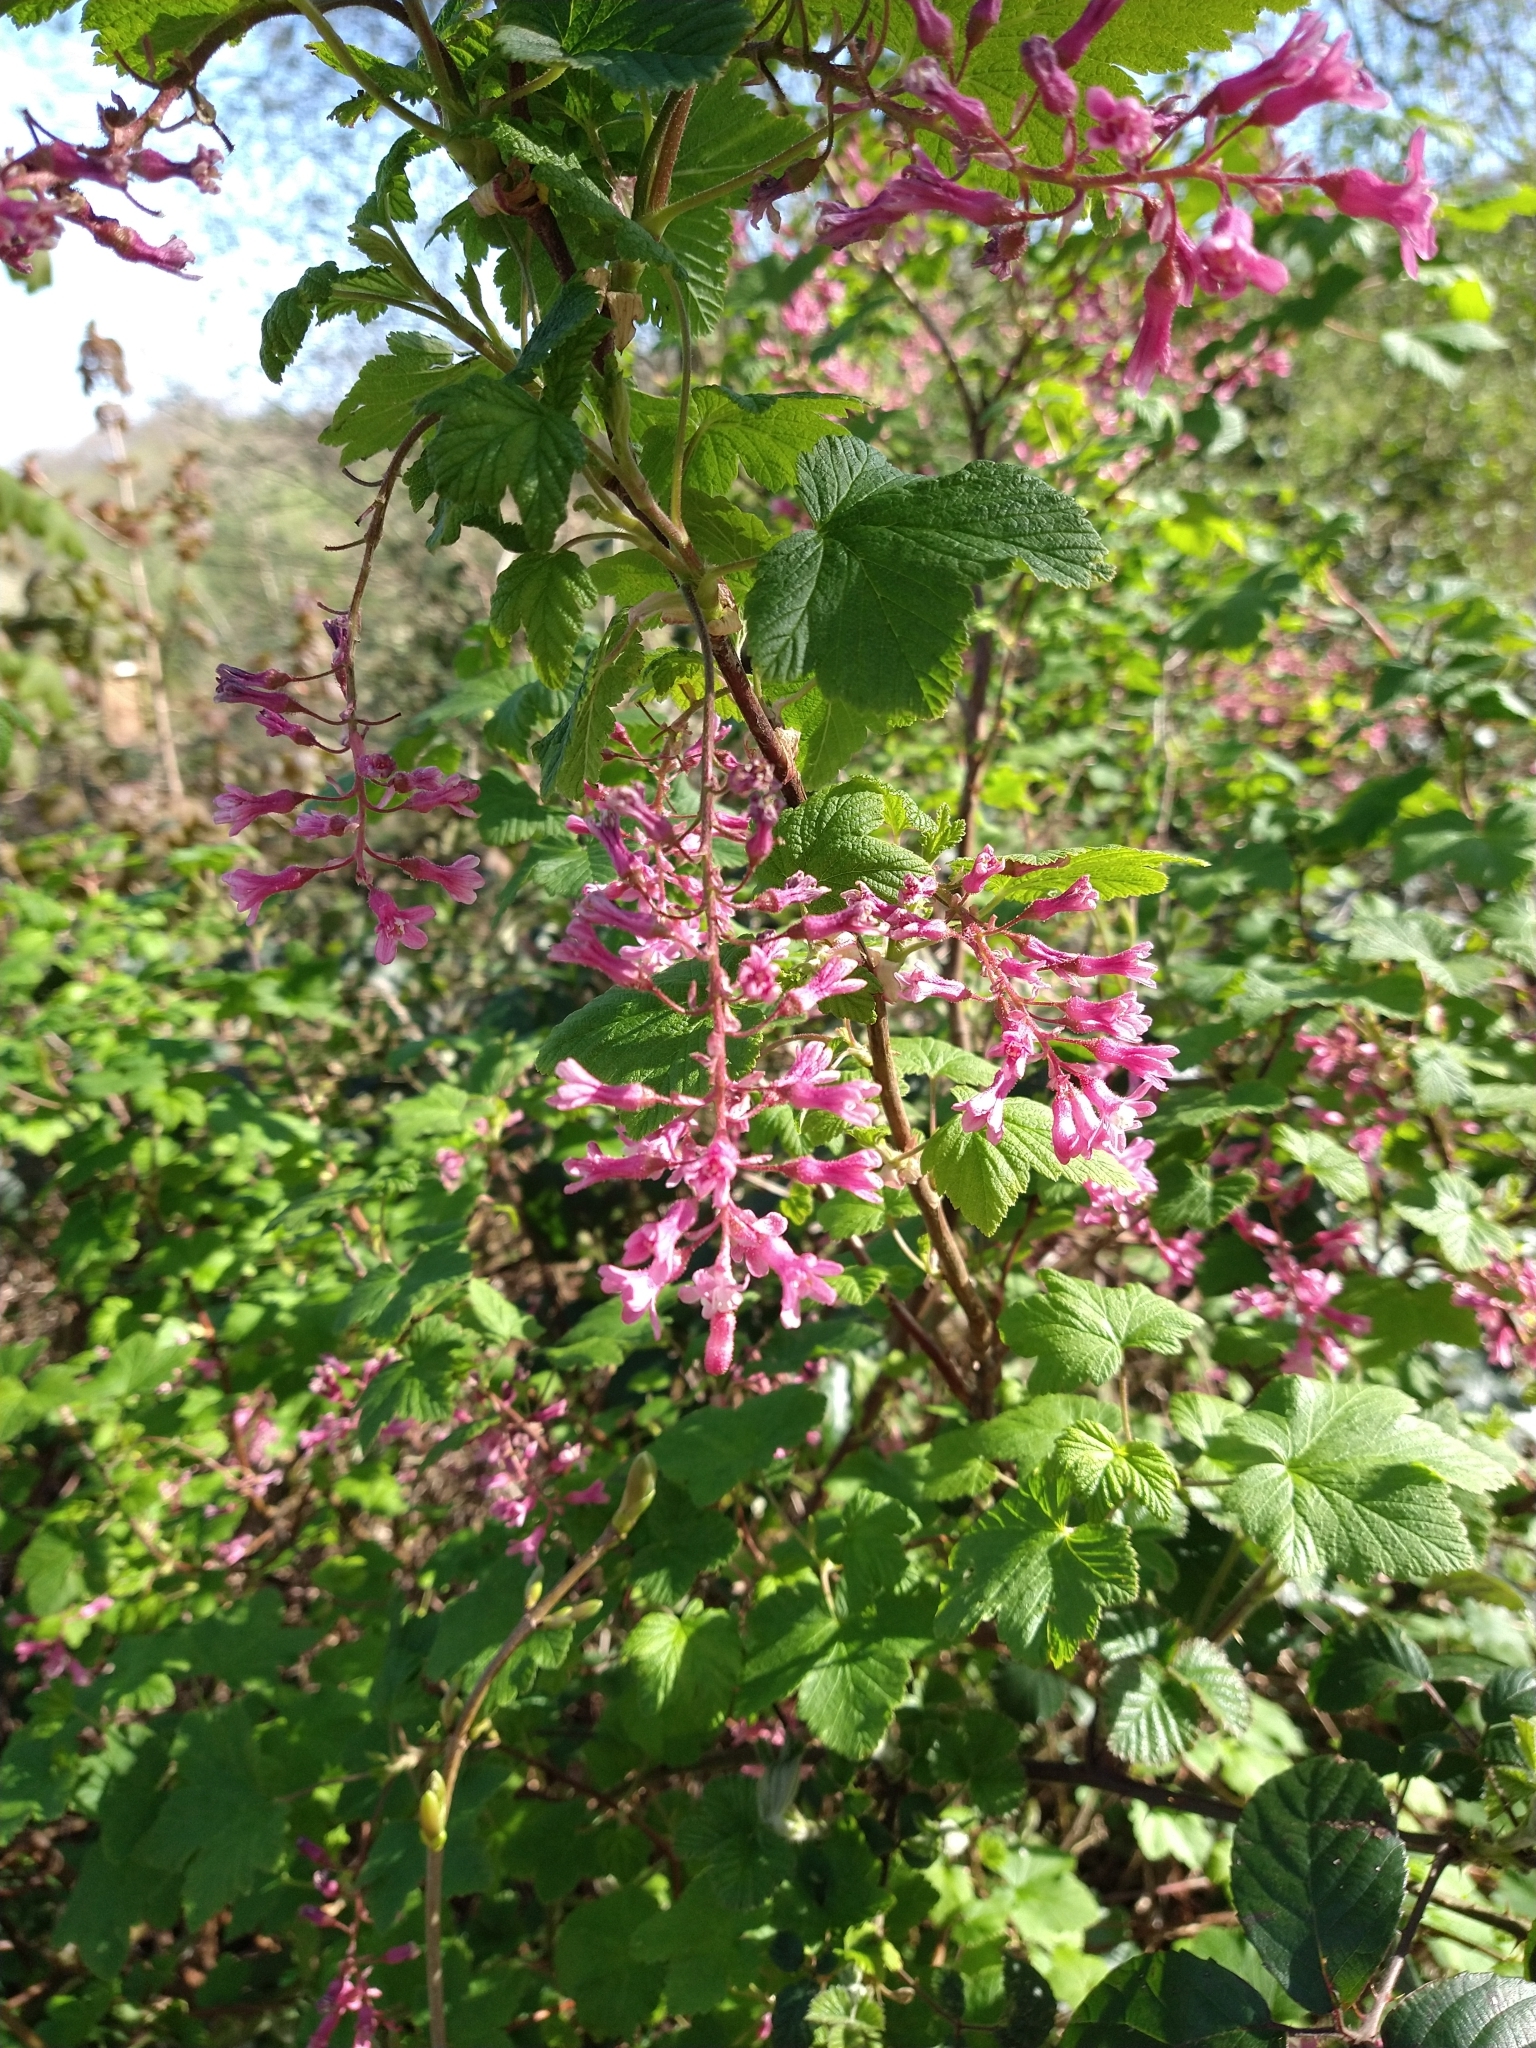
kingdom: Plantae
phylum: Tracheophyta
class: Magnoliopsida
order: Saxifragales
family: Grossulariaceae
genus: Ribes
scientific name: Ribes sanguineum
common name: Flowering currant
